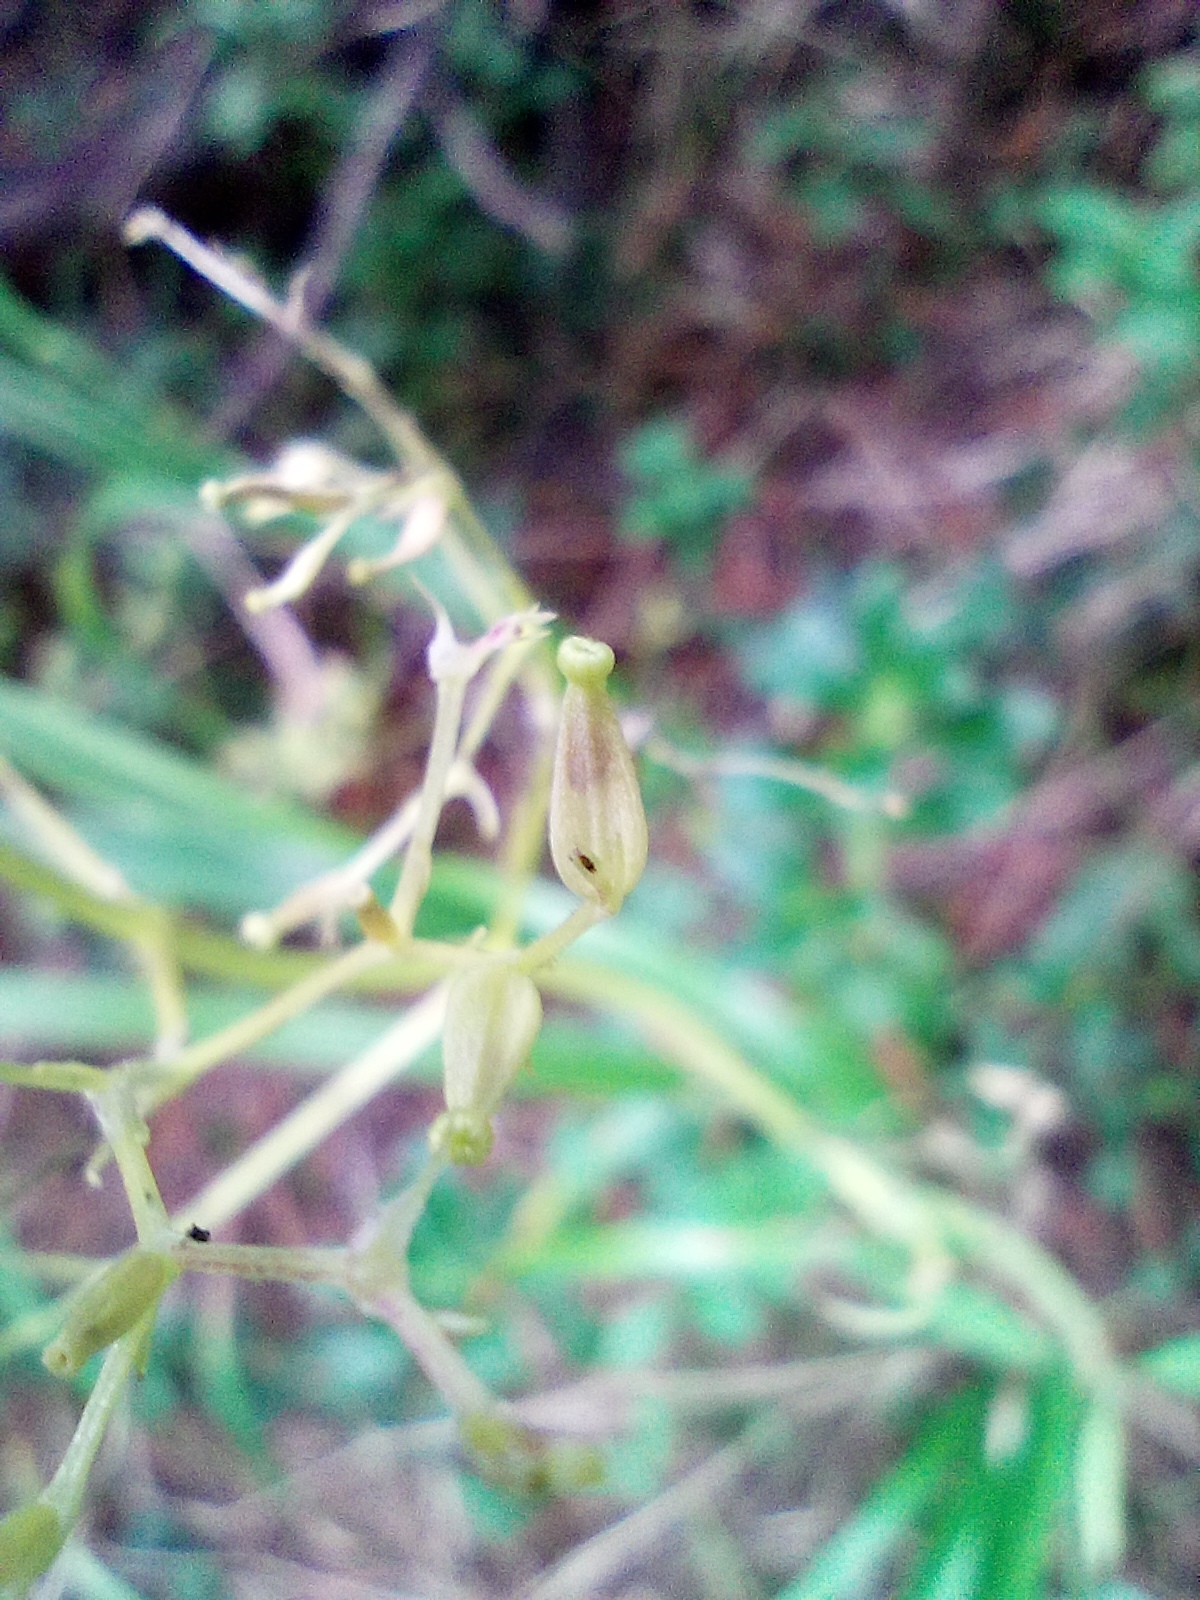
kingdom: Plantae
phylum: Tracheophyta
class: Magnoliopsida
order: Dipsacales
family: Caprifoliaceae
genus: Valeriana
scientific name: Valeriana saxatilis
